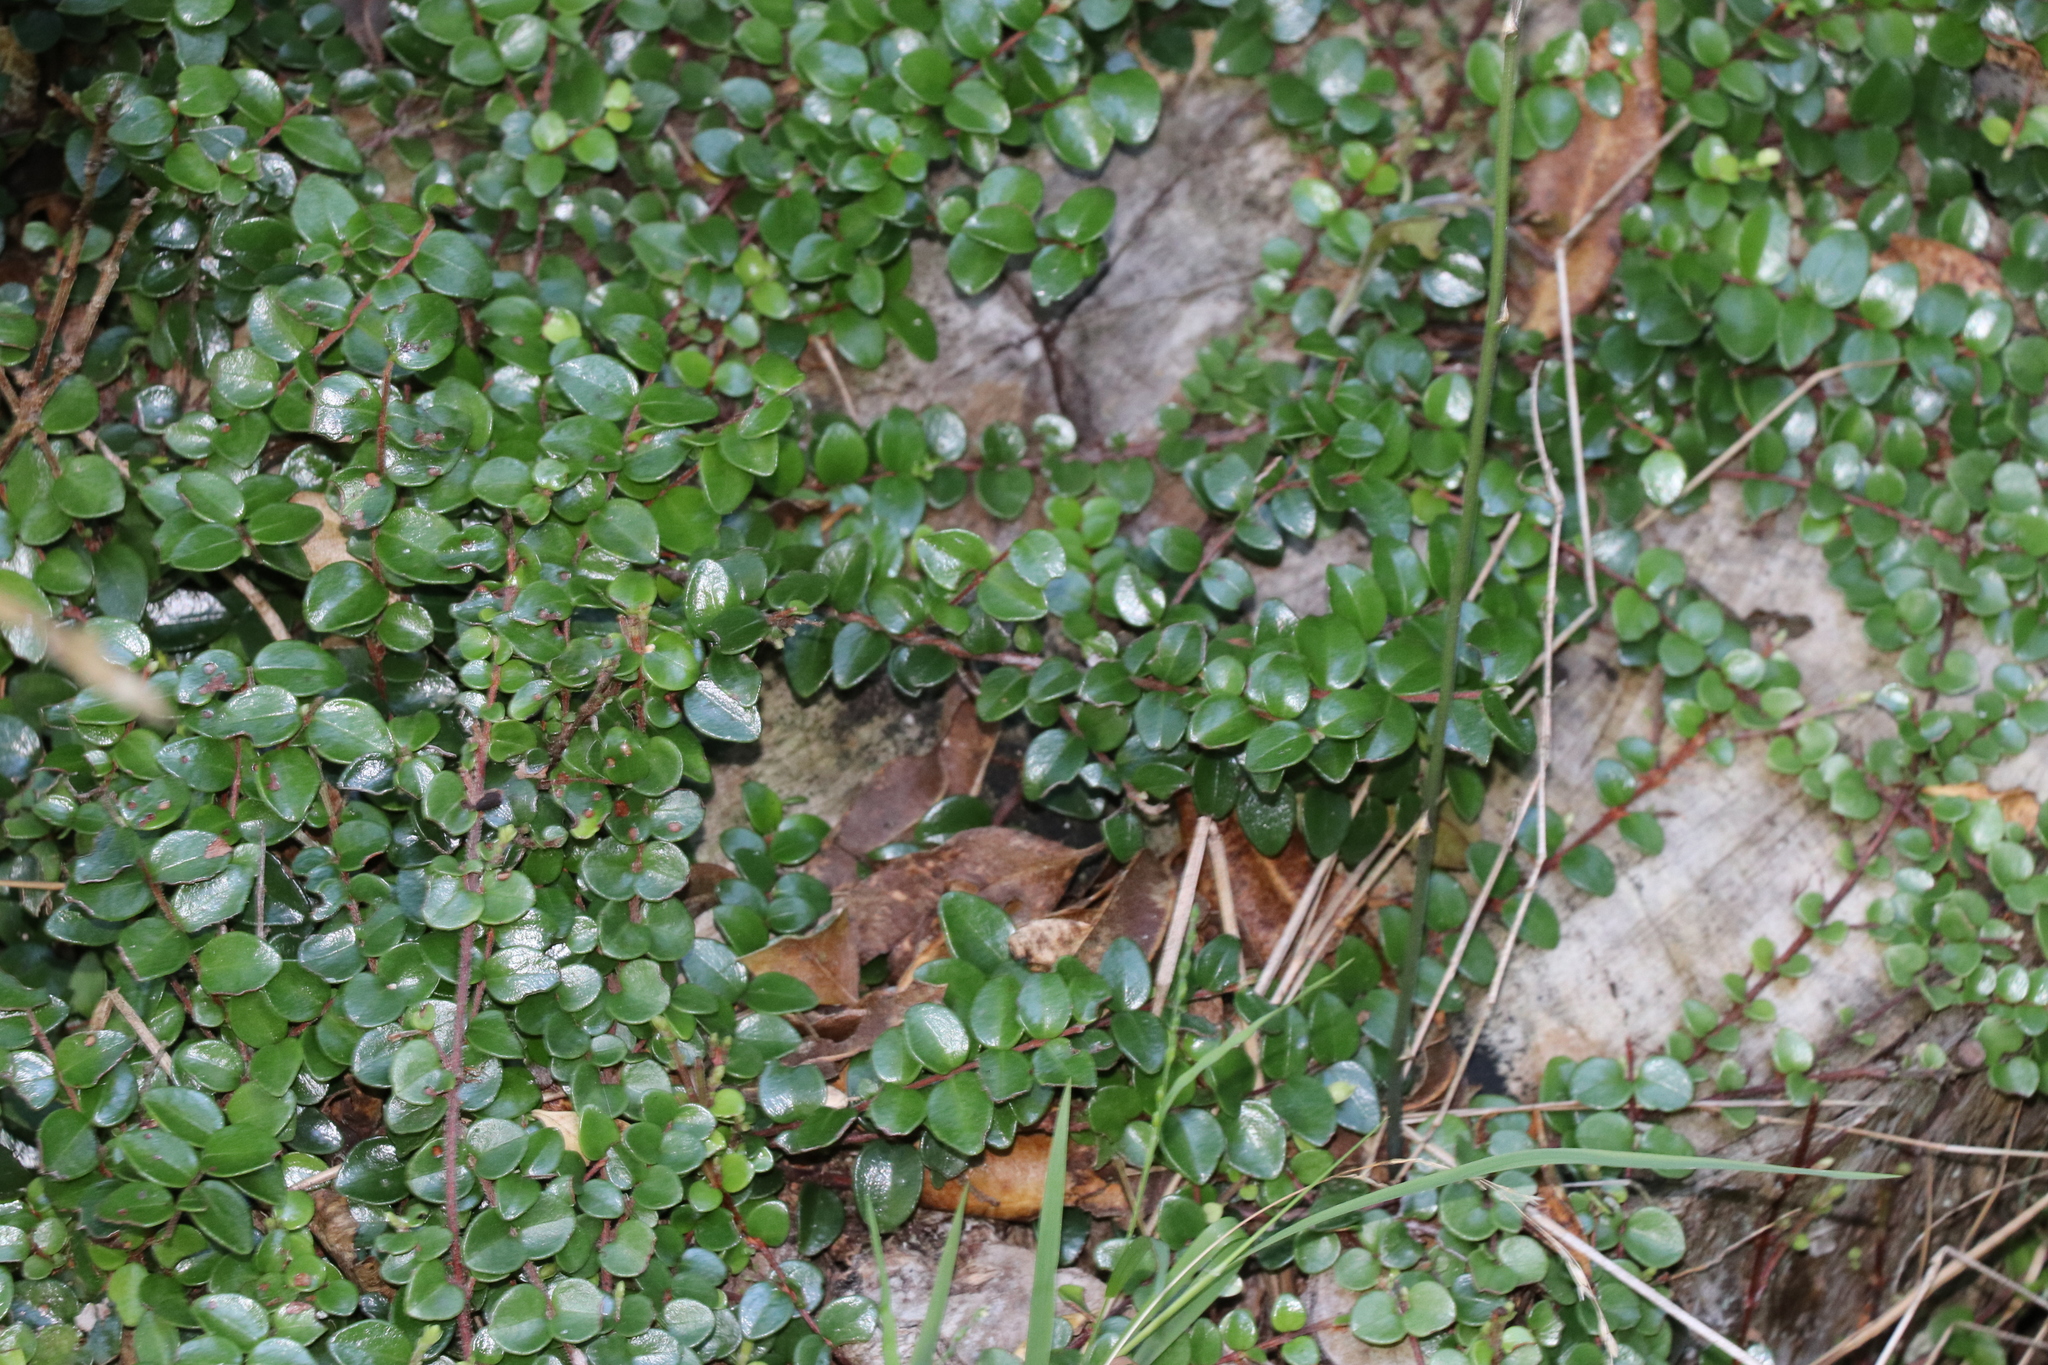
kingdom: Plantae
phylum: Tracheophyta
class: Magnoliopsida
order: Myrtales
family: Myrtaceae
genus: Metrosideros
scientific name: Metrosideros perforata
